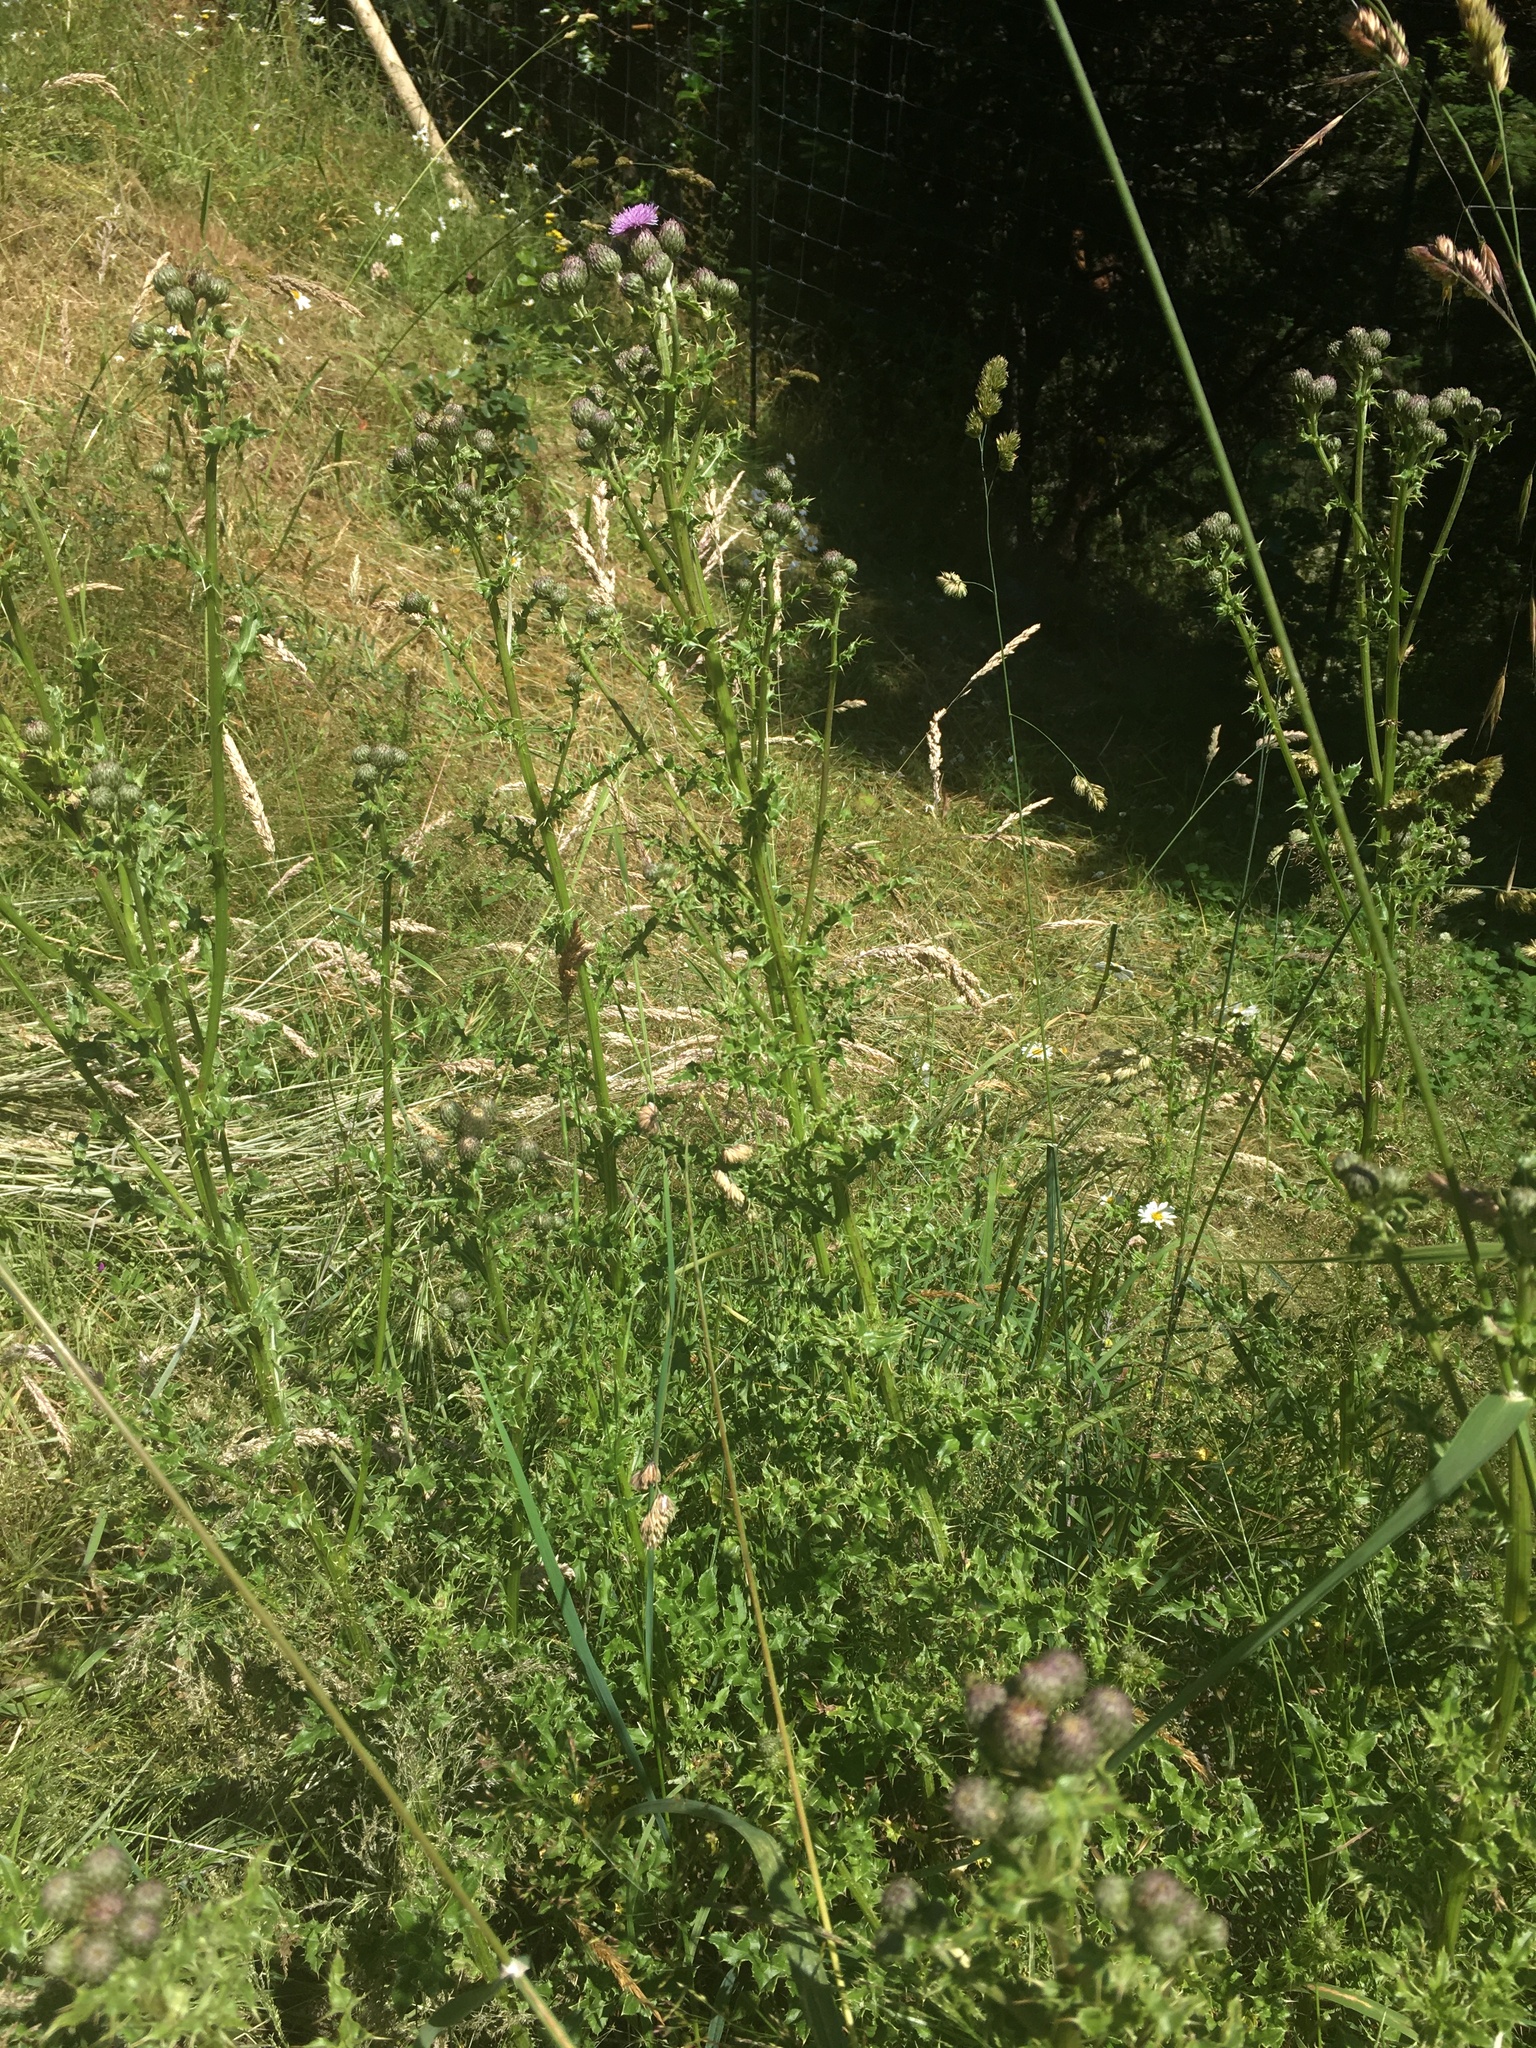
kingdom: Plantae
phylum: Tracheophyta
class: Magnoliopsida
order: Asterales
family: Asteraceae
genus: Cirsium
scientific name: Cirsium arvense
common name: Creeping thistle
